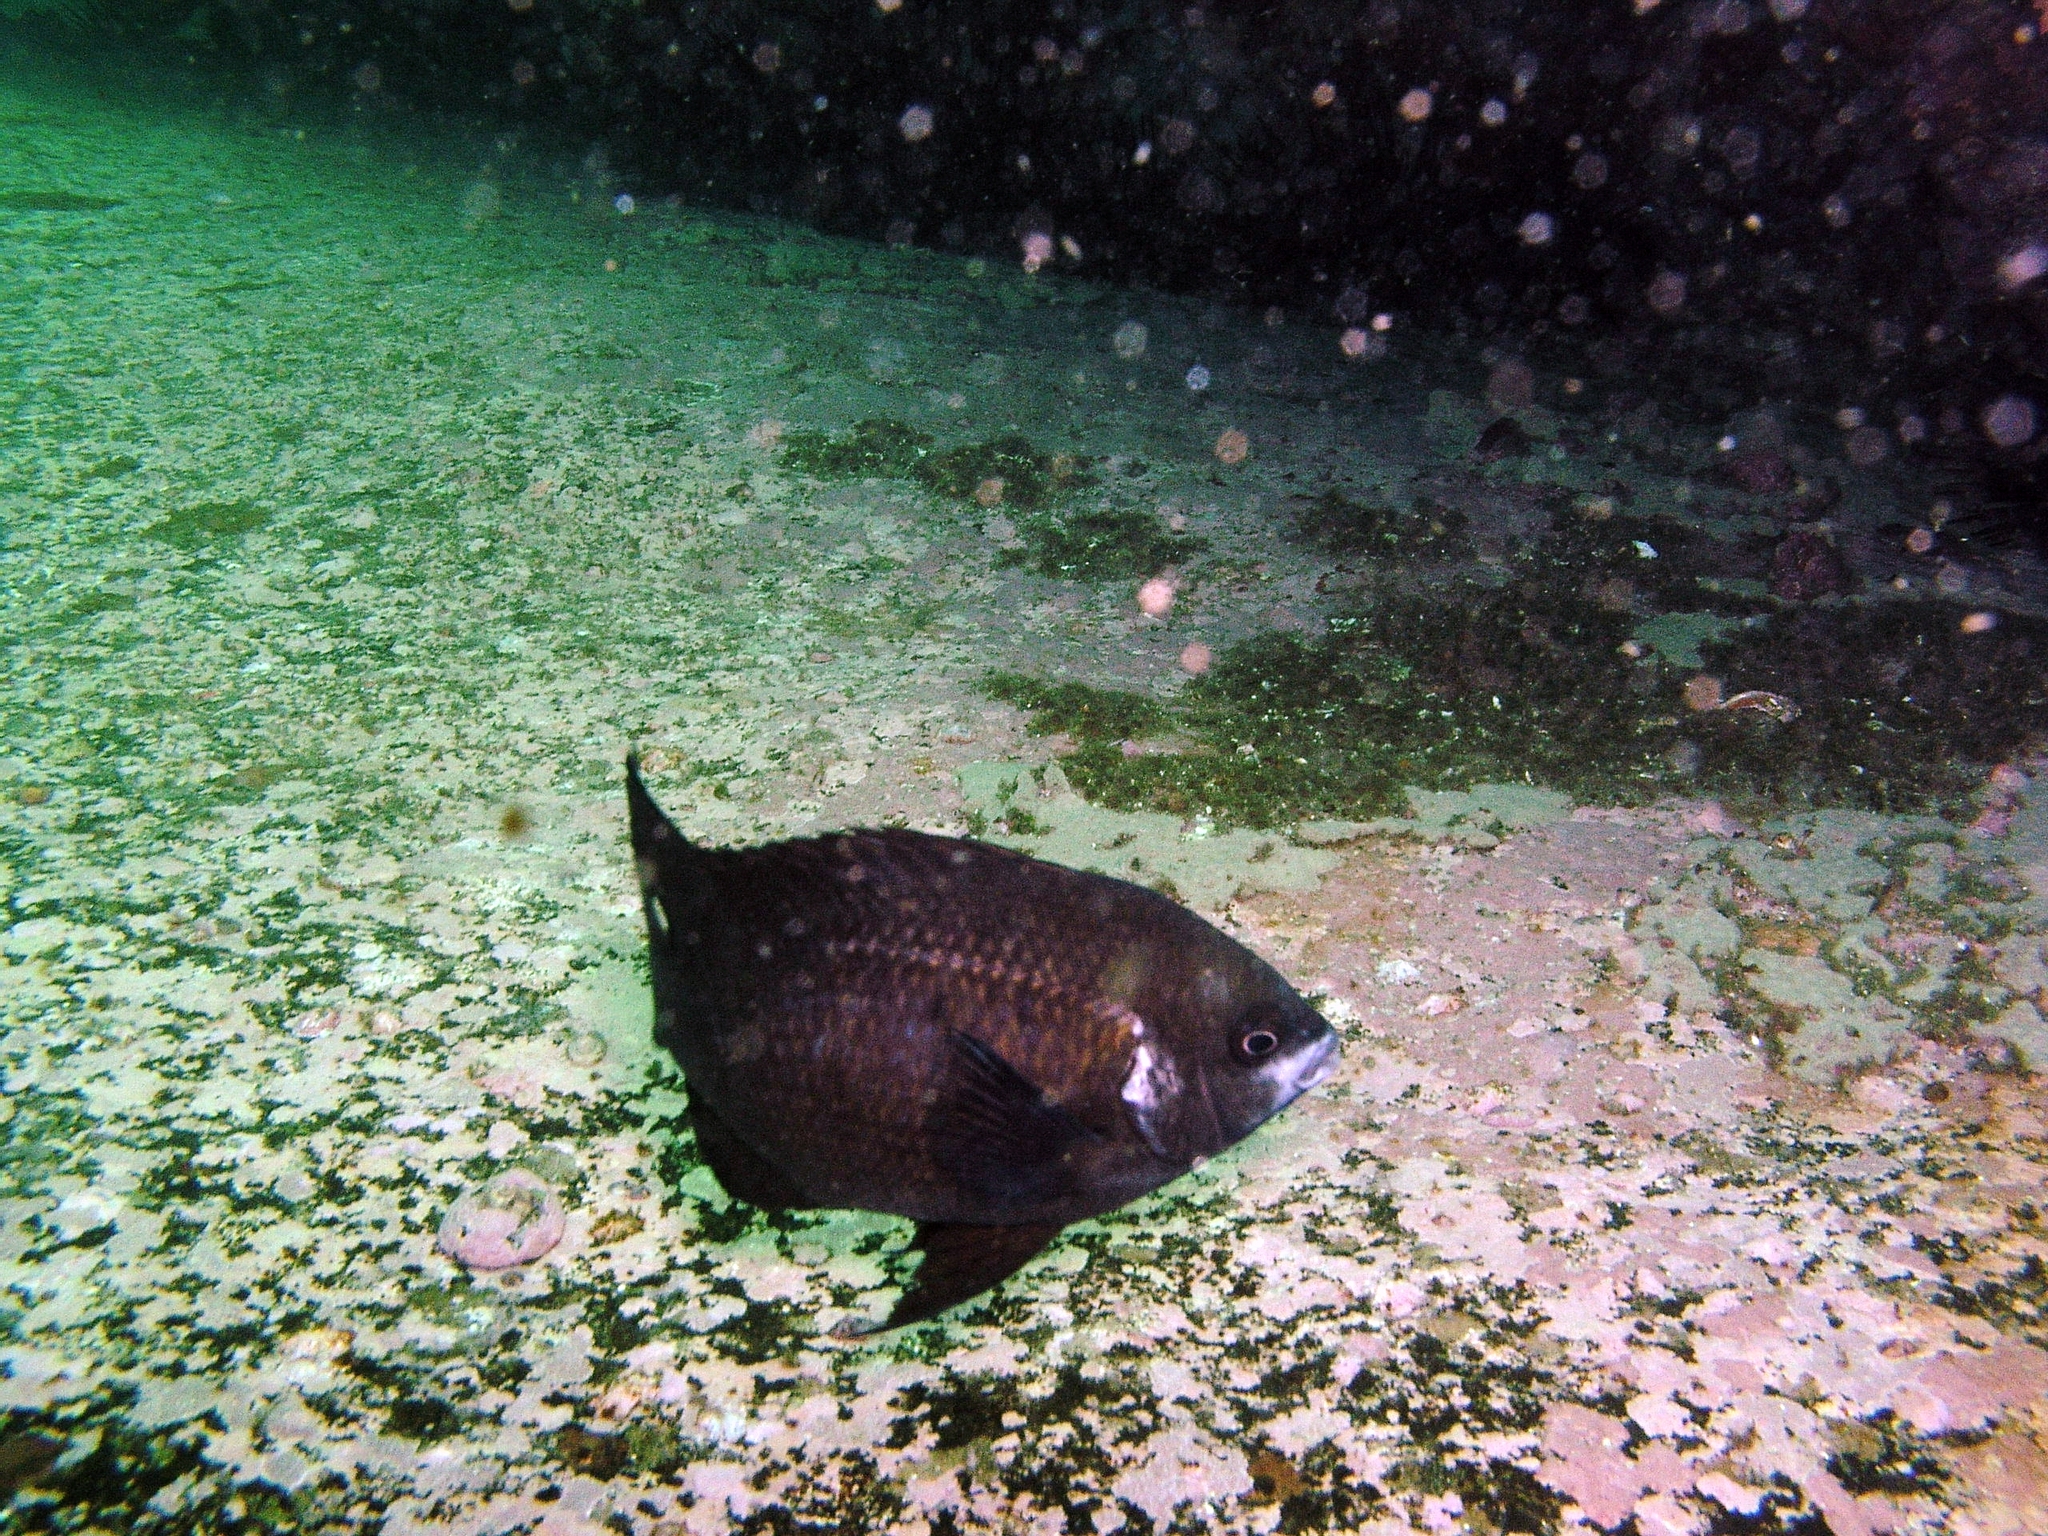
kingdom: Animalia
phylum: Chordata
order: Perciformes
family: Pomacentridae
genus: Parma
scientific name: Parma microlepis
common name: White-ear
